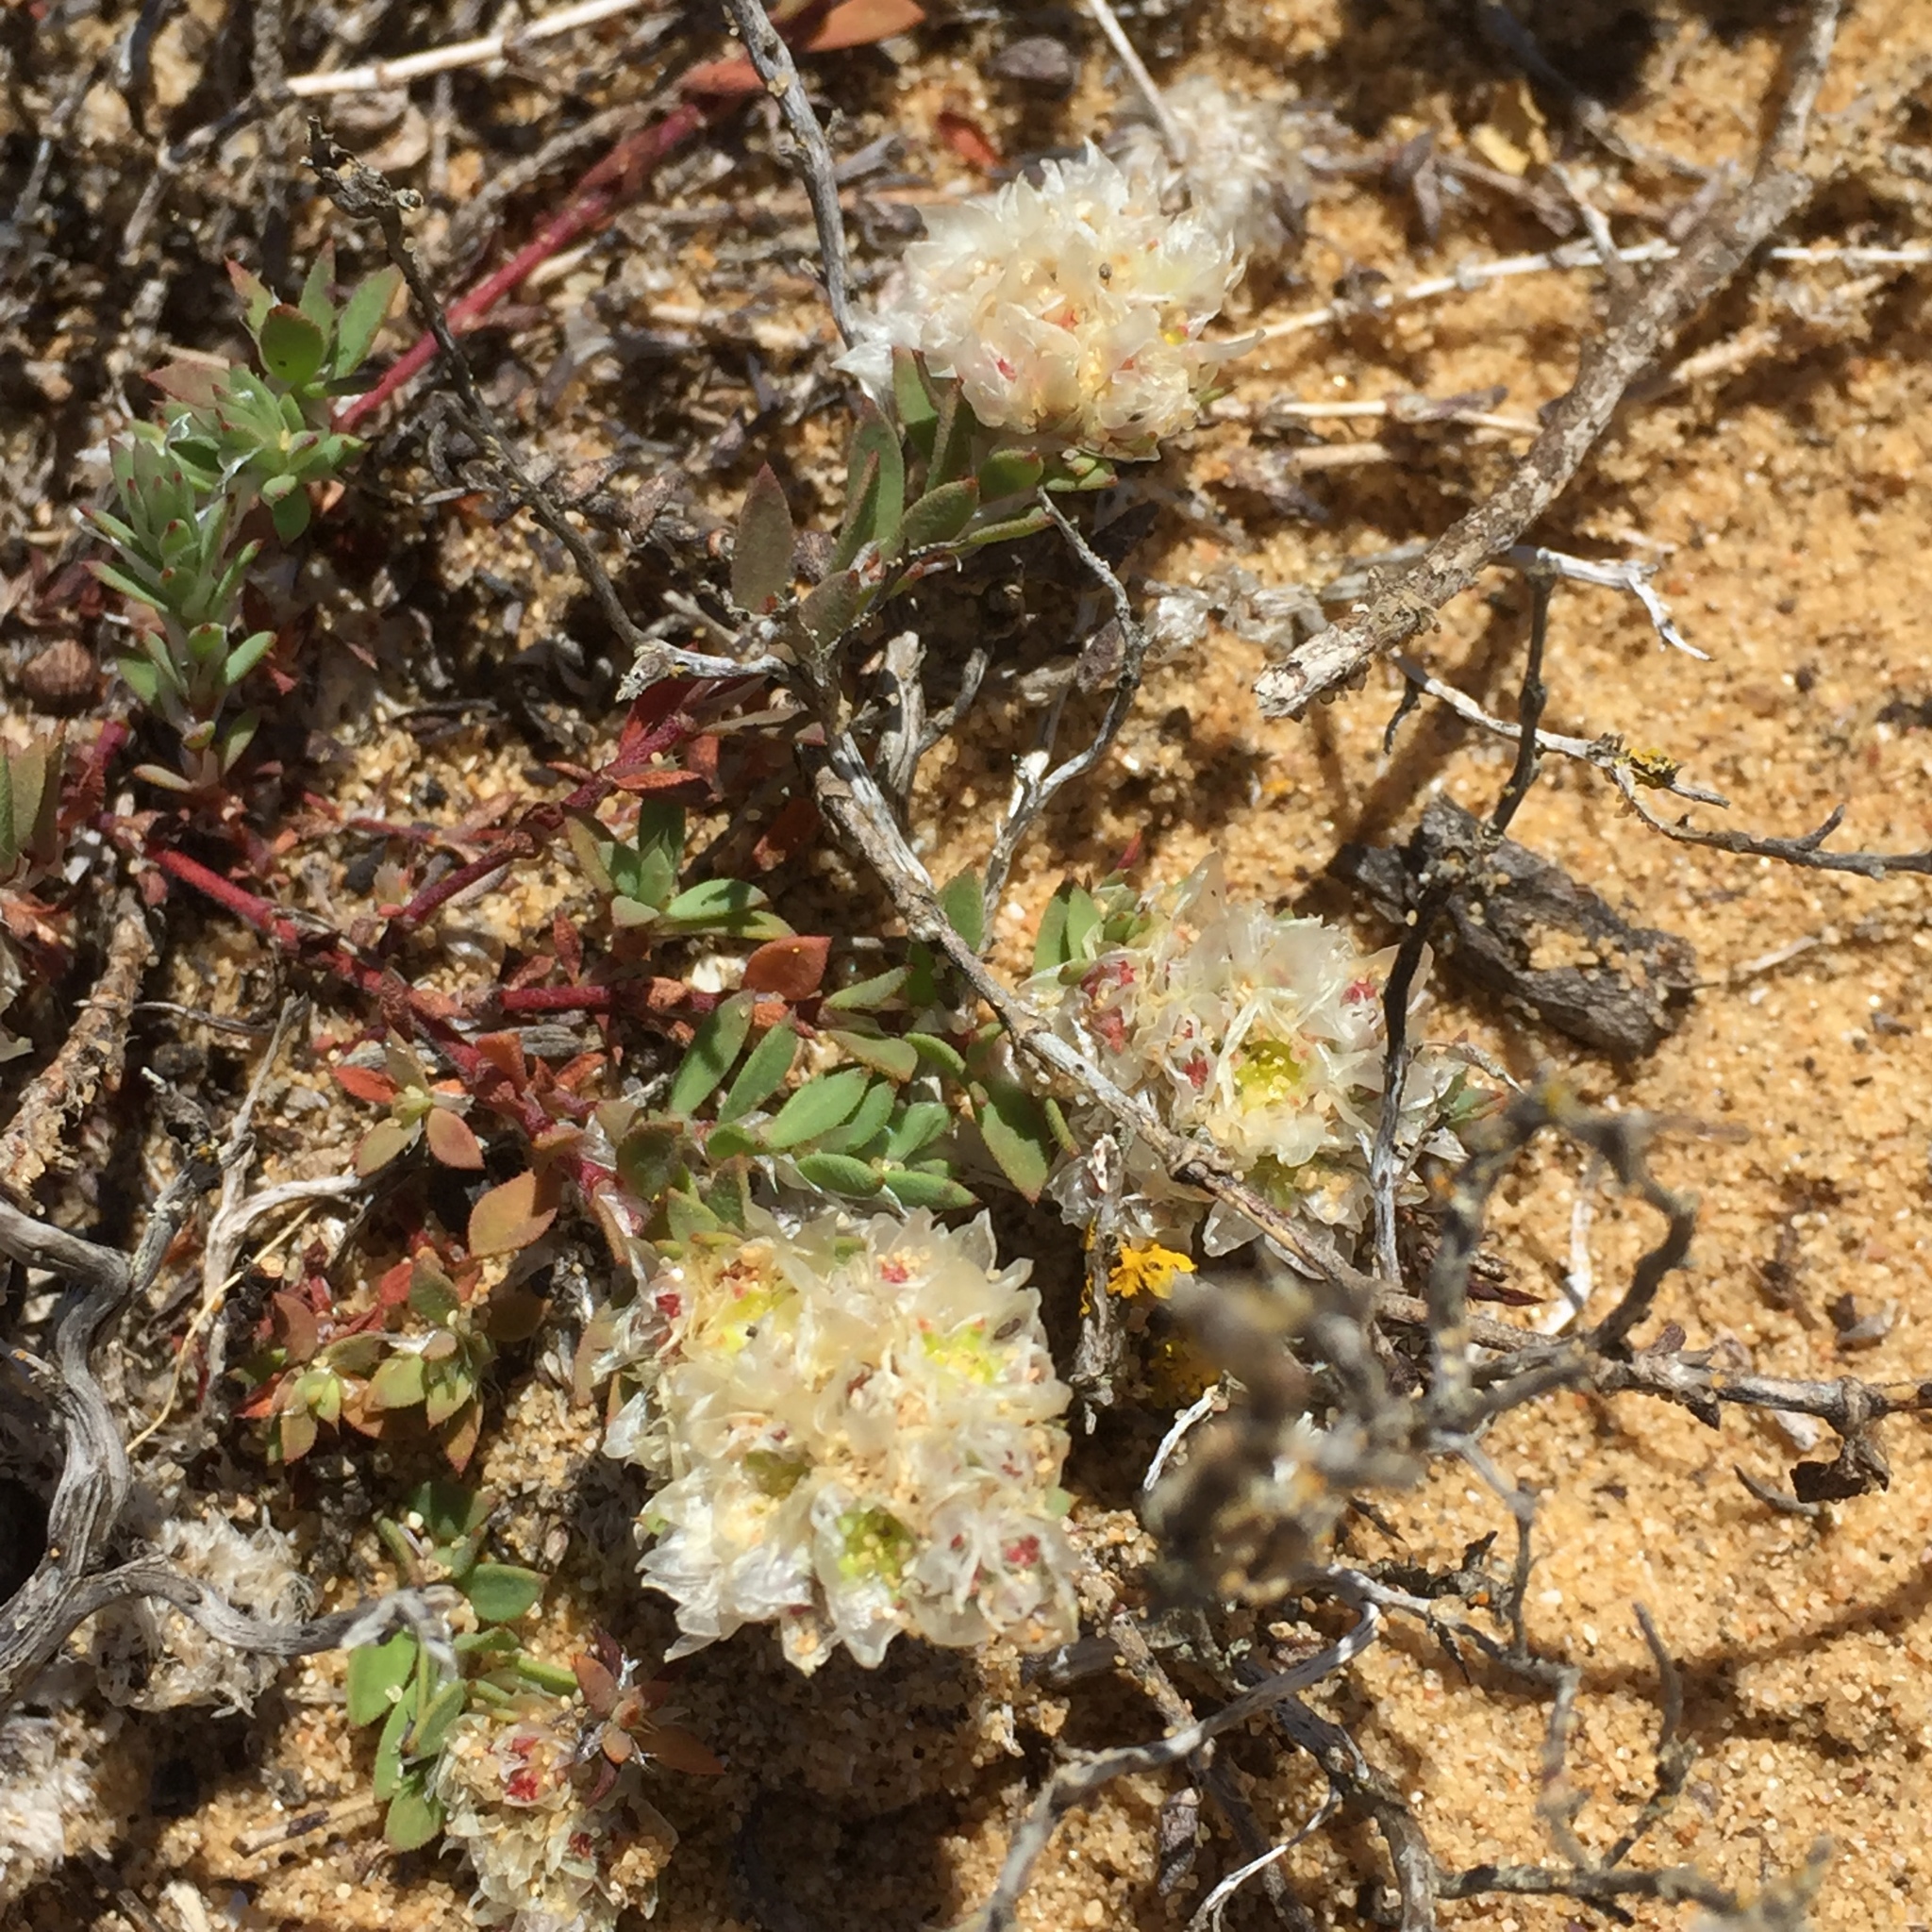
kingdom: Plantae
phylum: Tracheophyta
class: Magnoliopsida
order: Caryophyllales
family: Caryophyllaceae
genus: Paronychia
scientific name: Paronychia argentea
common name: Silver nailroot
